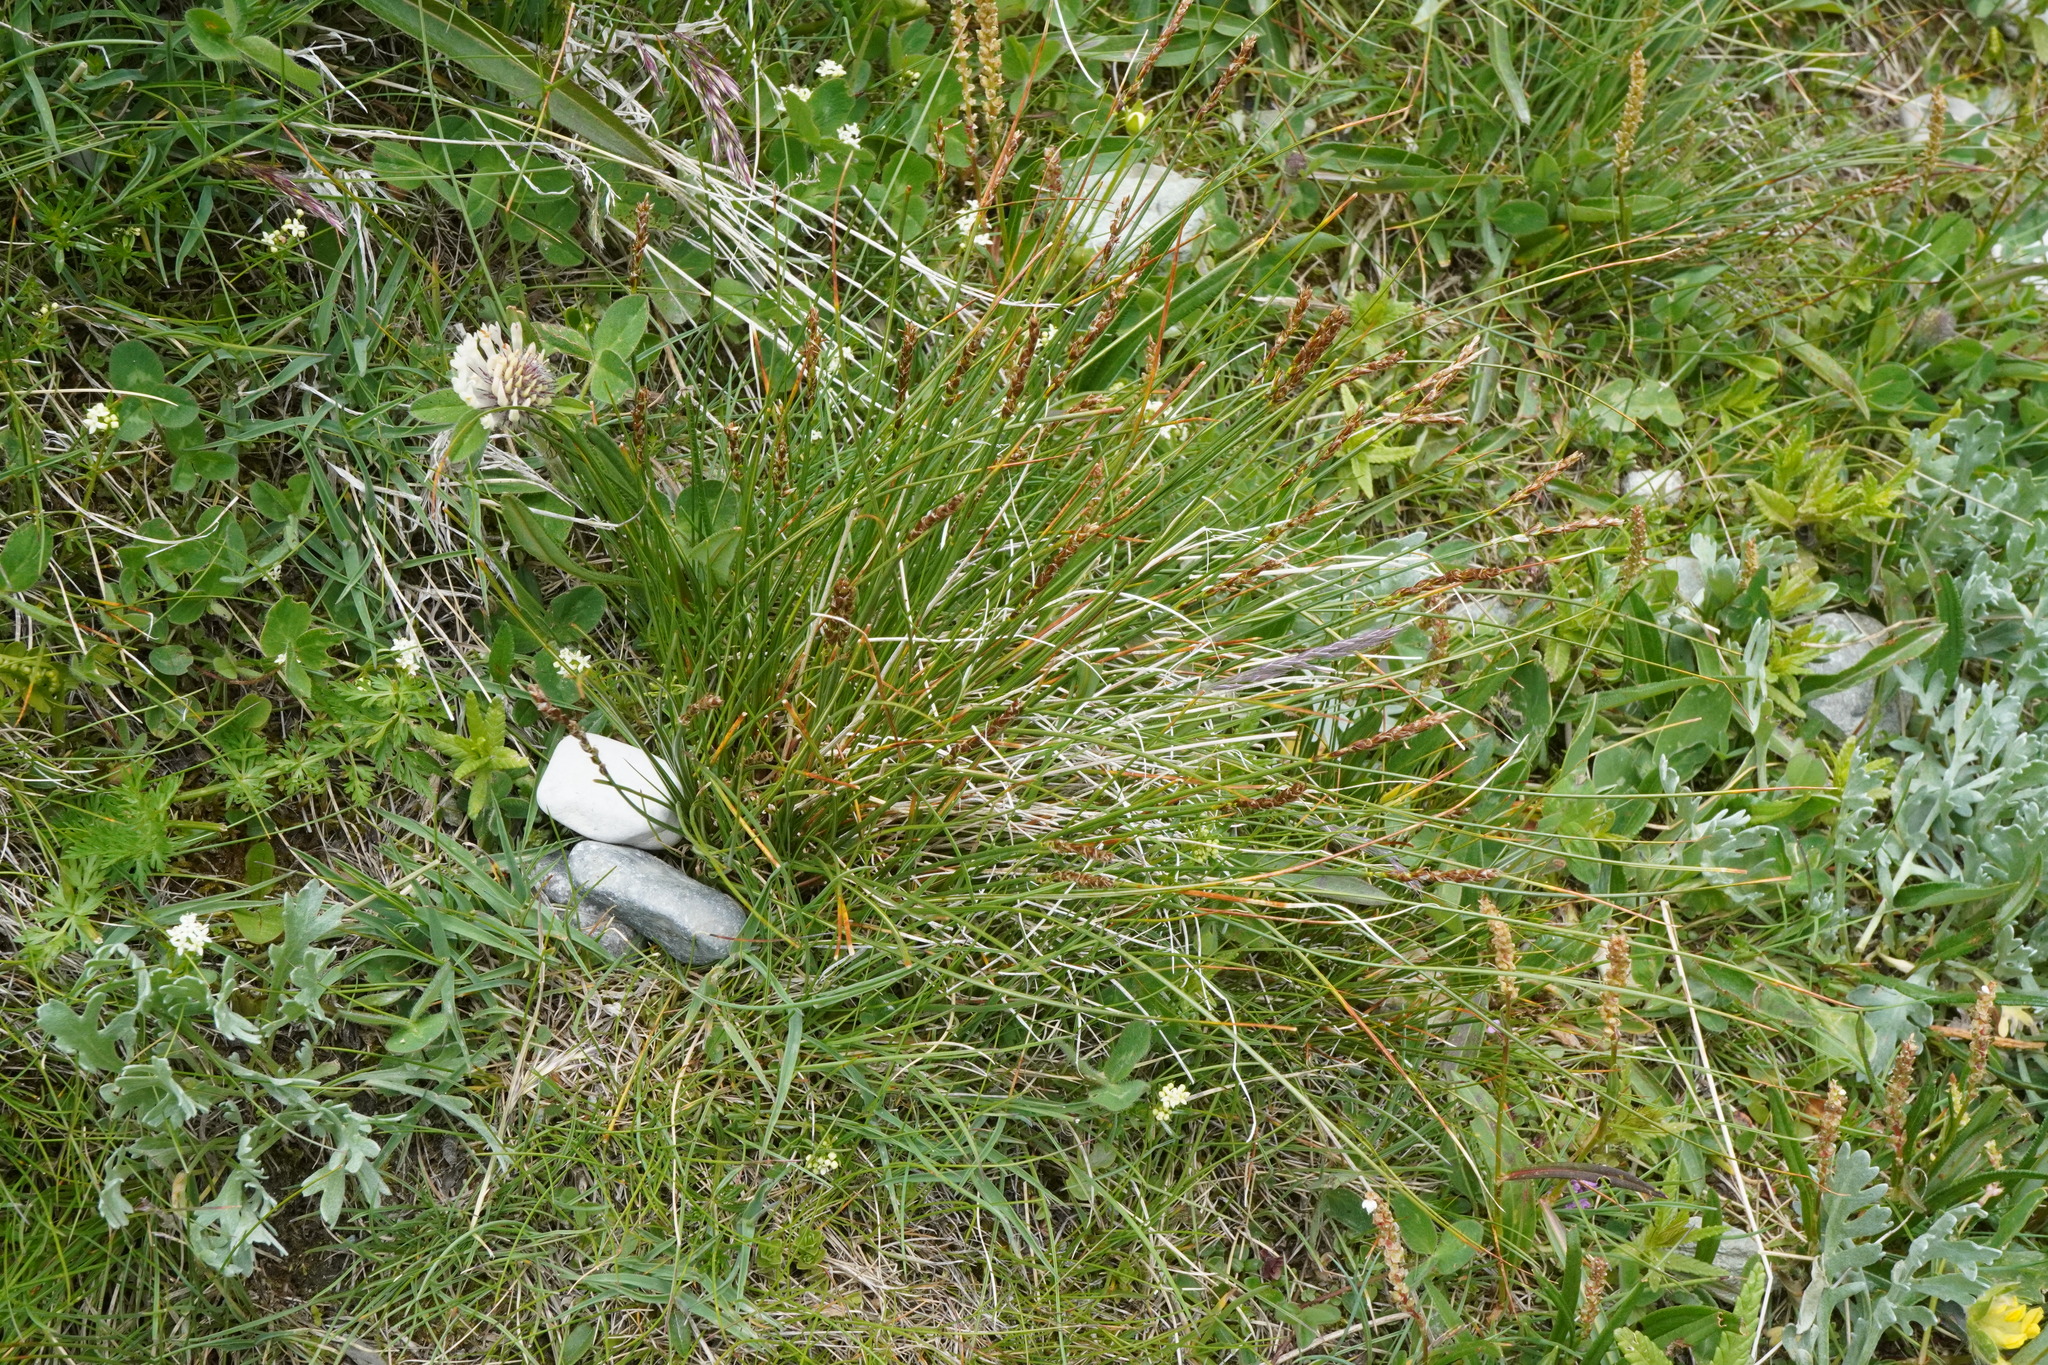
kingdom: Plantae
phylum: Tracheophyta
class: Liliopsida
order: Poales
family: Cyperaceae
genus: Carex
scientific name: Carex myosuroides
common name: Bellard's bog sedge
